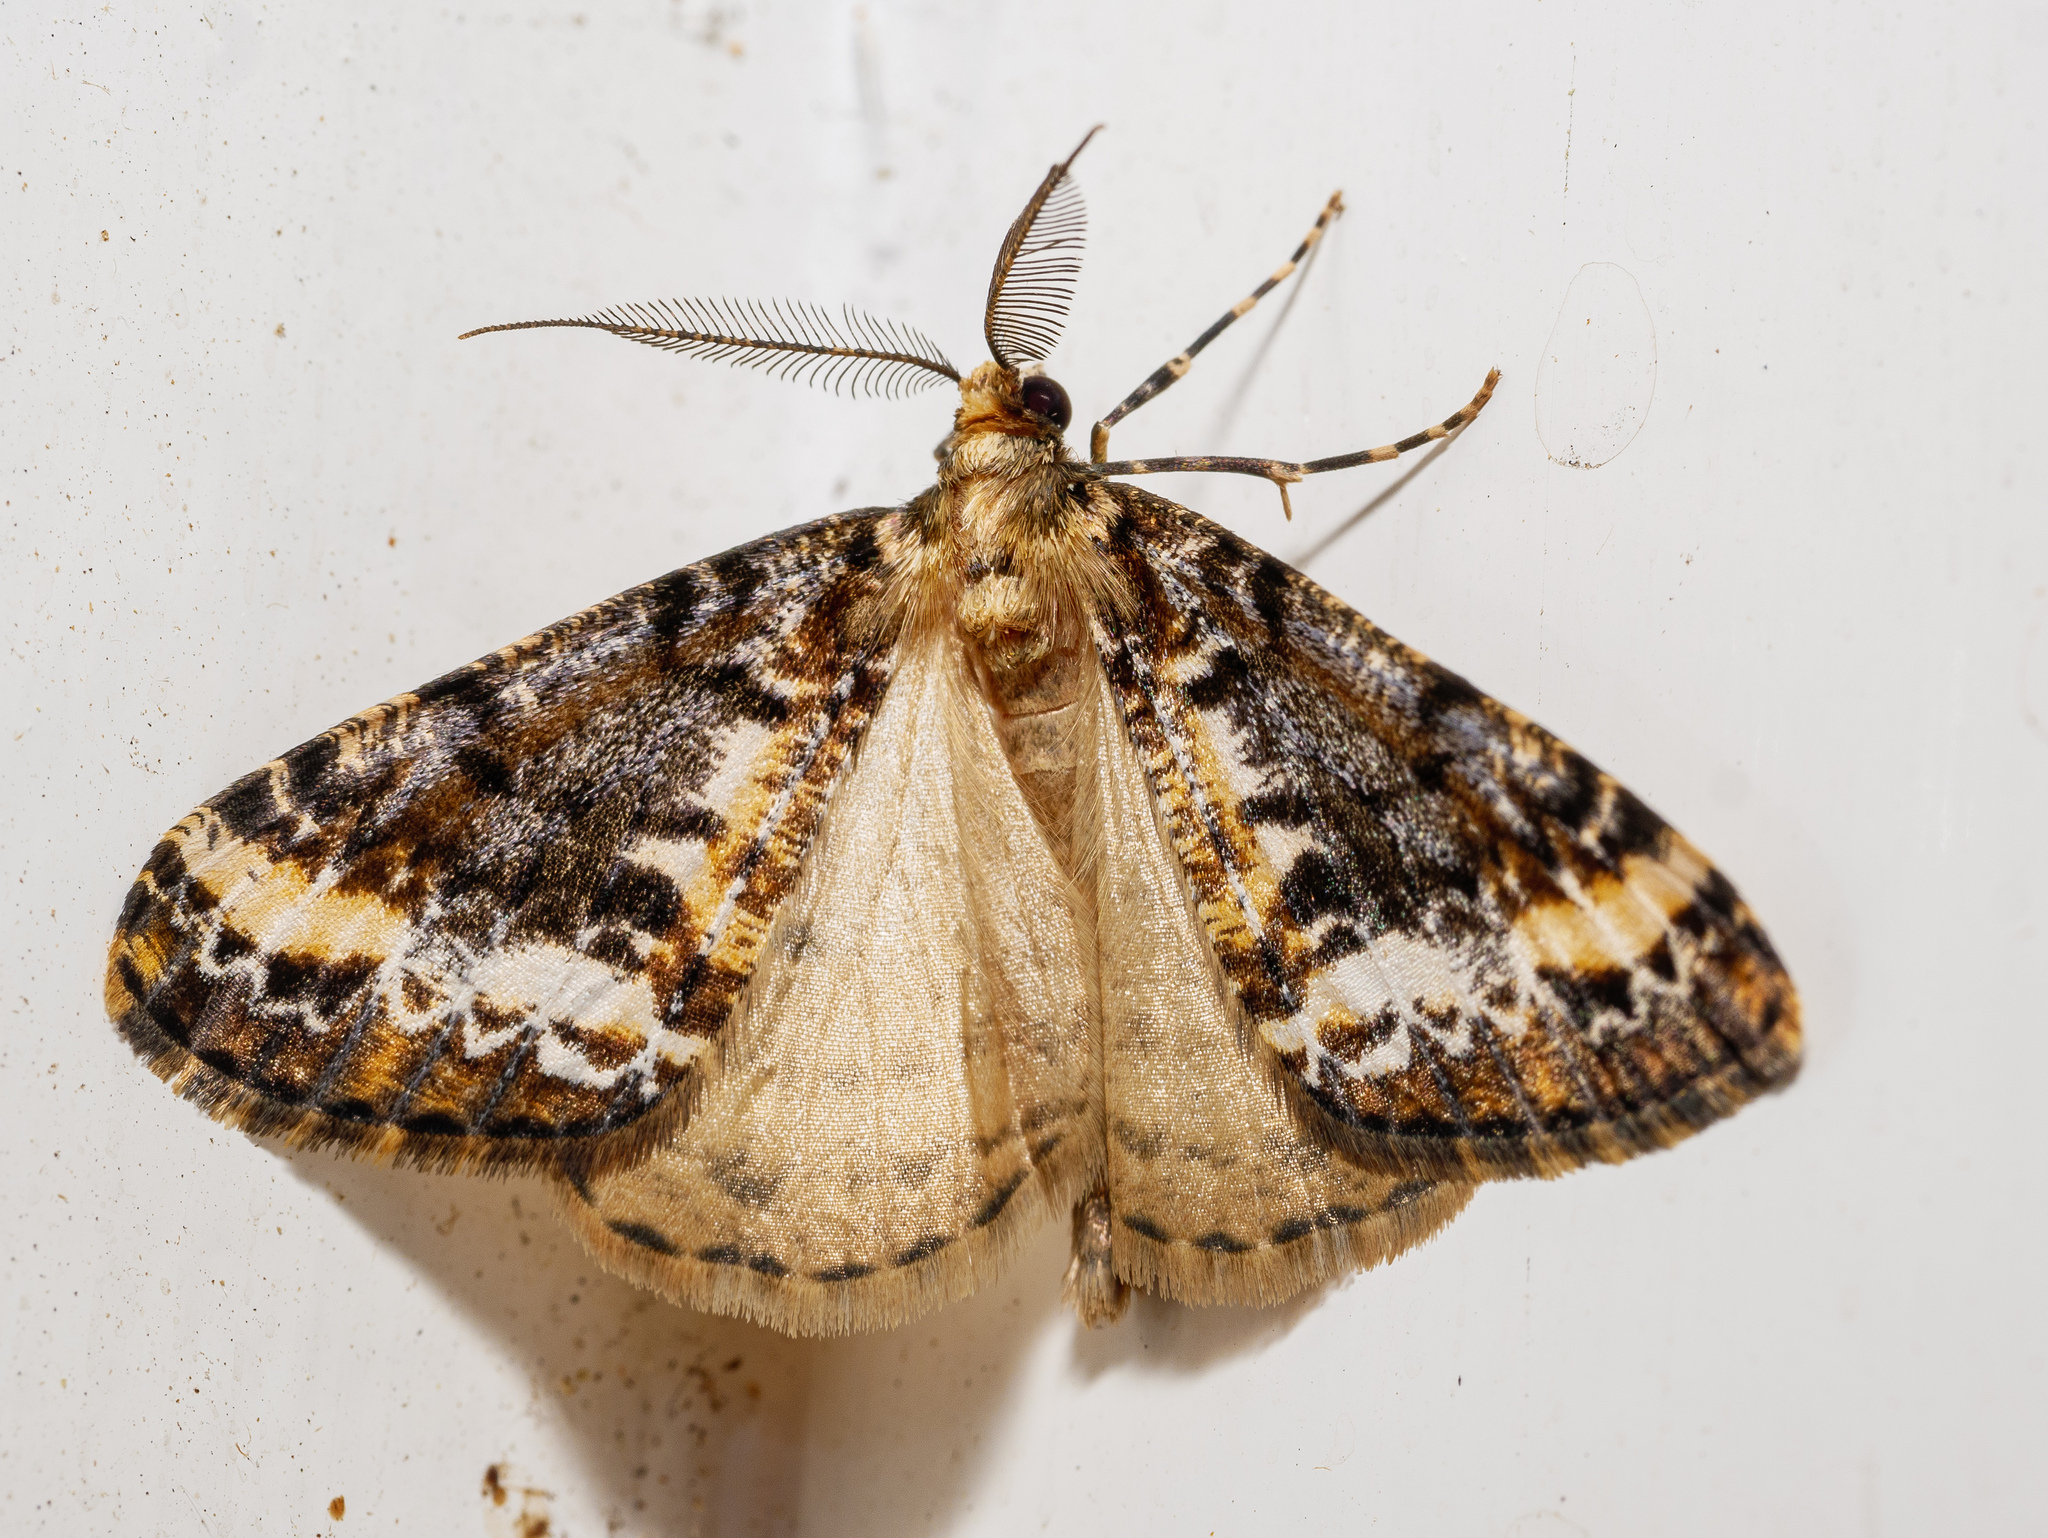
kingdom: Animalia
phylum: Arthropoda
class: Insecta
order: Lepidoptera
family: Geometridae
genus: Pseudocoremia
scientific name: Pseudocoremia leucelaea
